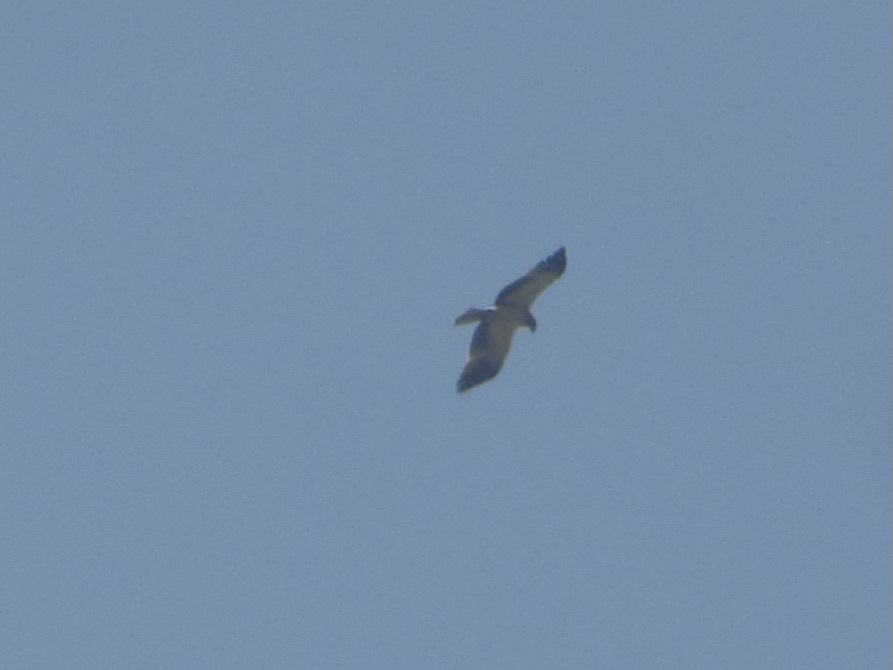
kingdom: Animalia
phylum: Chordata
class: Aves
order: Accipitriformes
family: Accipitridae
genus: Hieraaetus
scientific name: Hieraaetus pennatus
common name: Booted eagle
